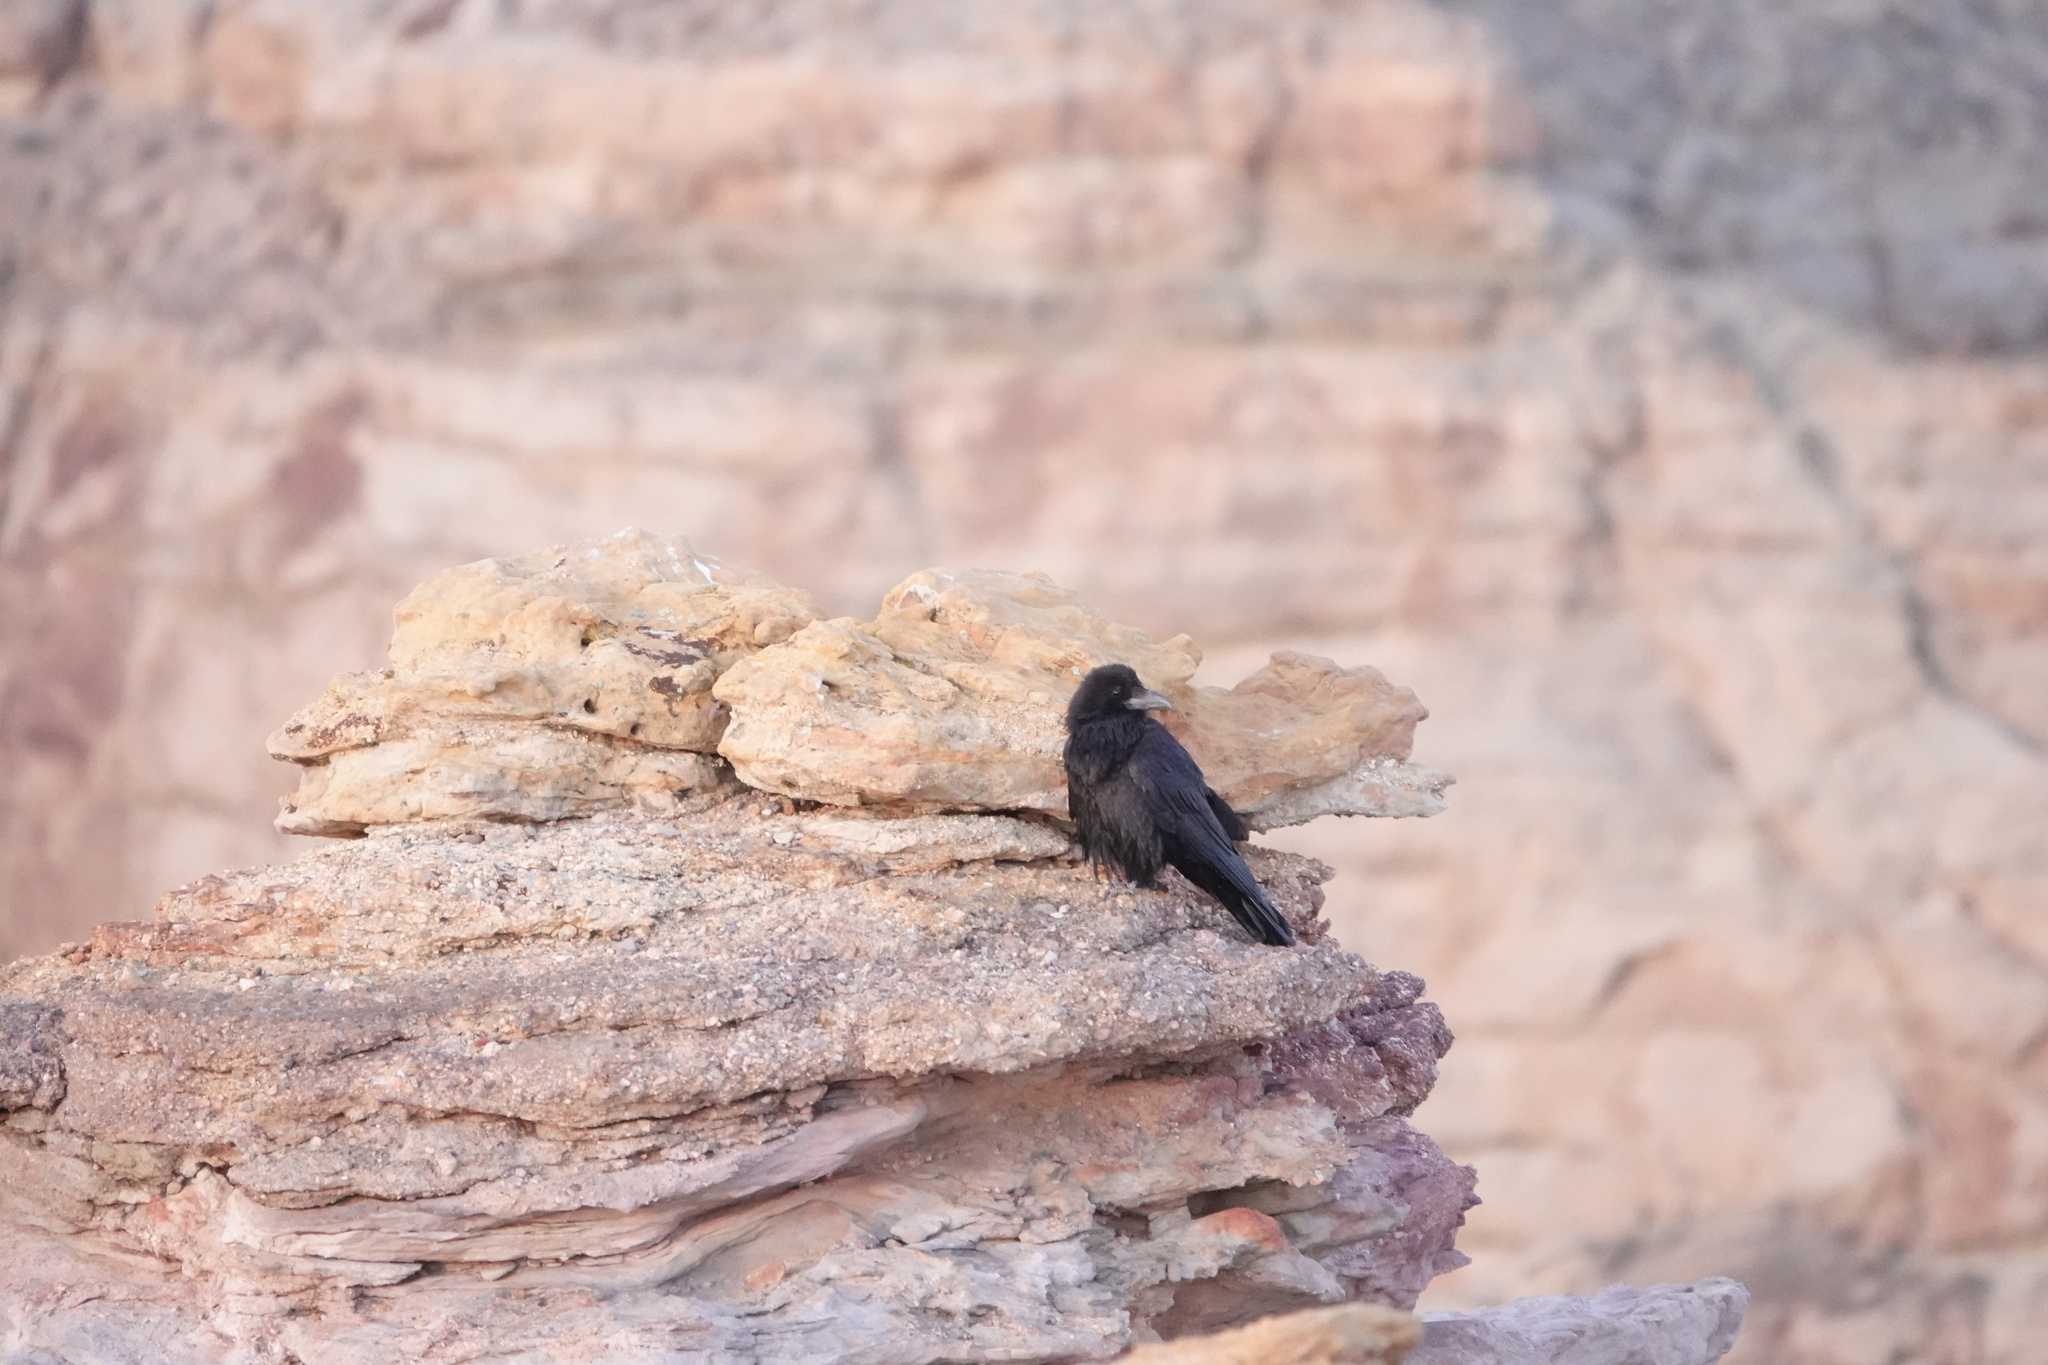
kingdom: Animalia
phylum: Chordata
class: Aves
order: Passeriformes
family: Corvidae
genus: Corvus
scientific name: Corvus corax
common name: Common raven
